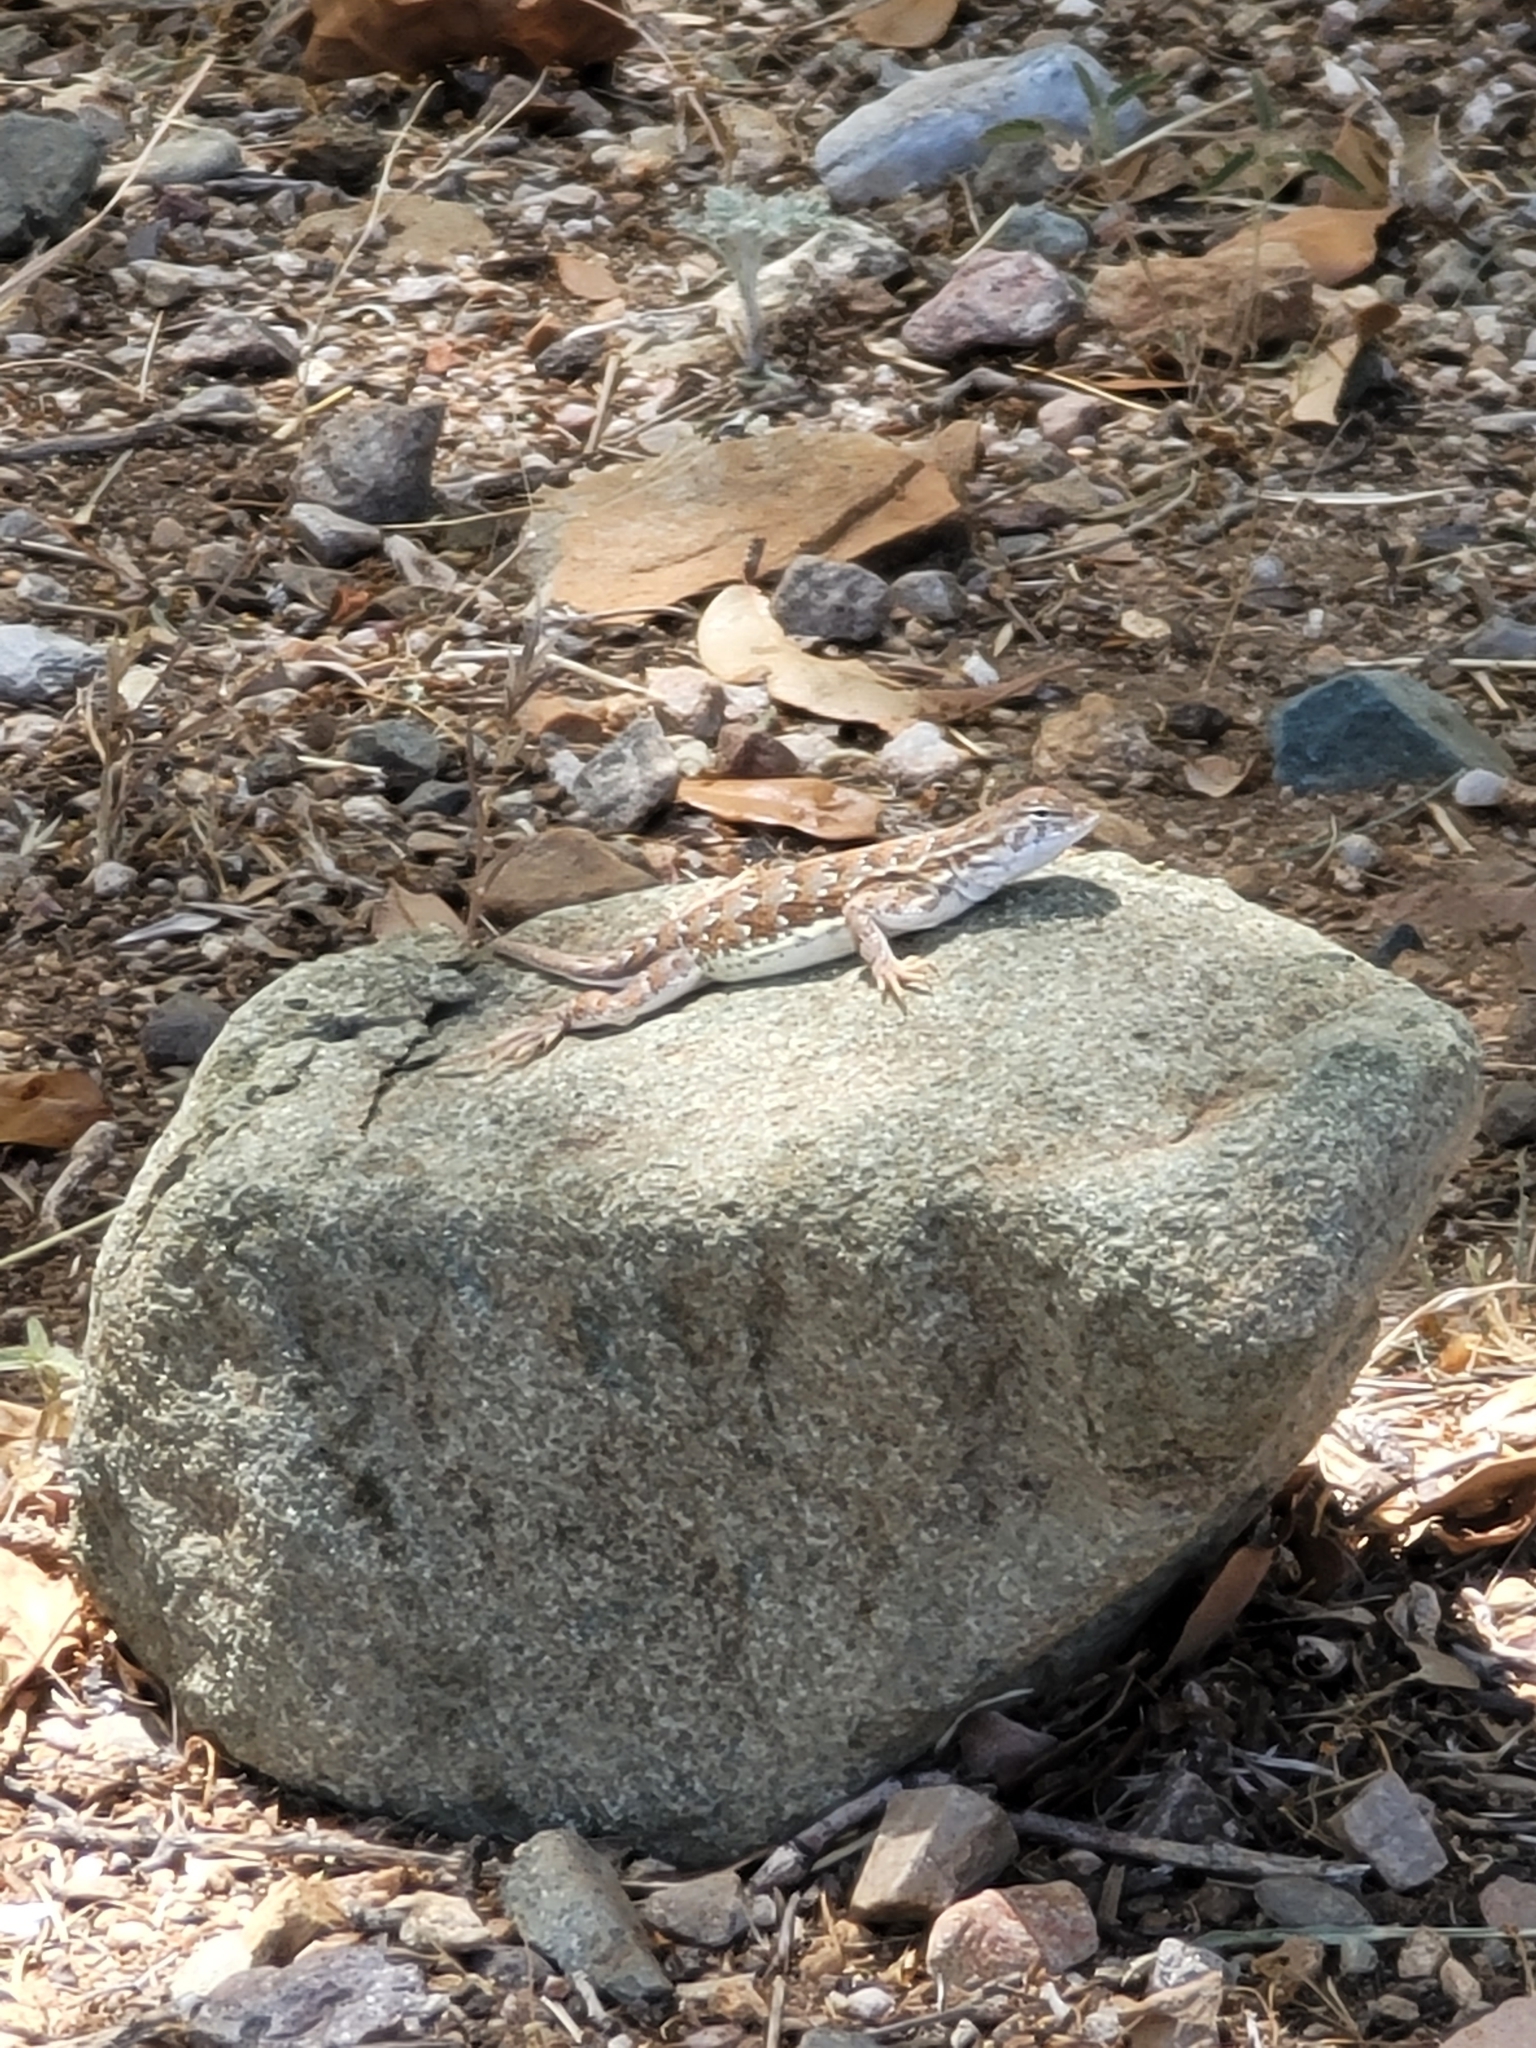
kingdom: Animalia
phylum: Chordata
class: Squamata
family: Phrynosomatidae
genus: Holbrookia
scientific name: Holbrookia maculata
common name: Lesser earless lizard
